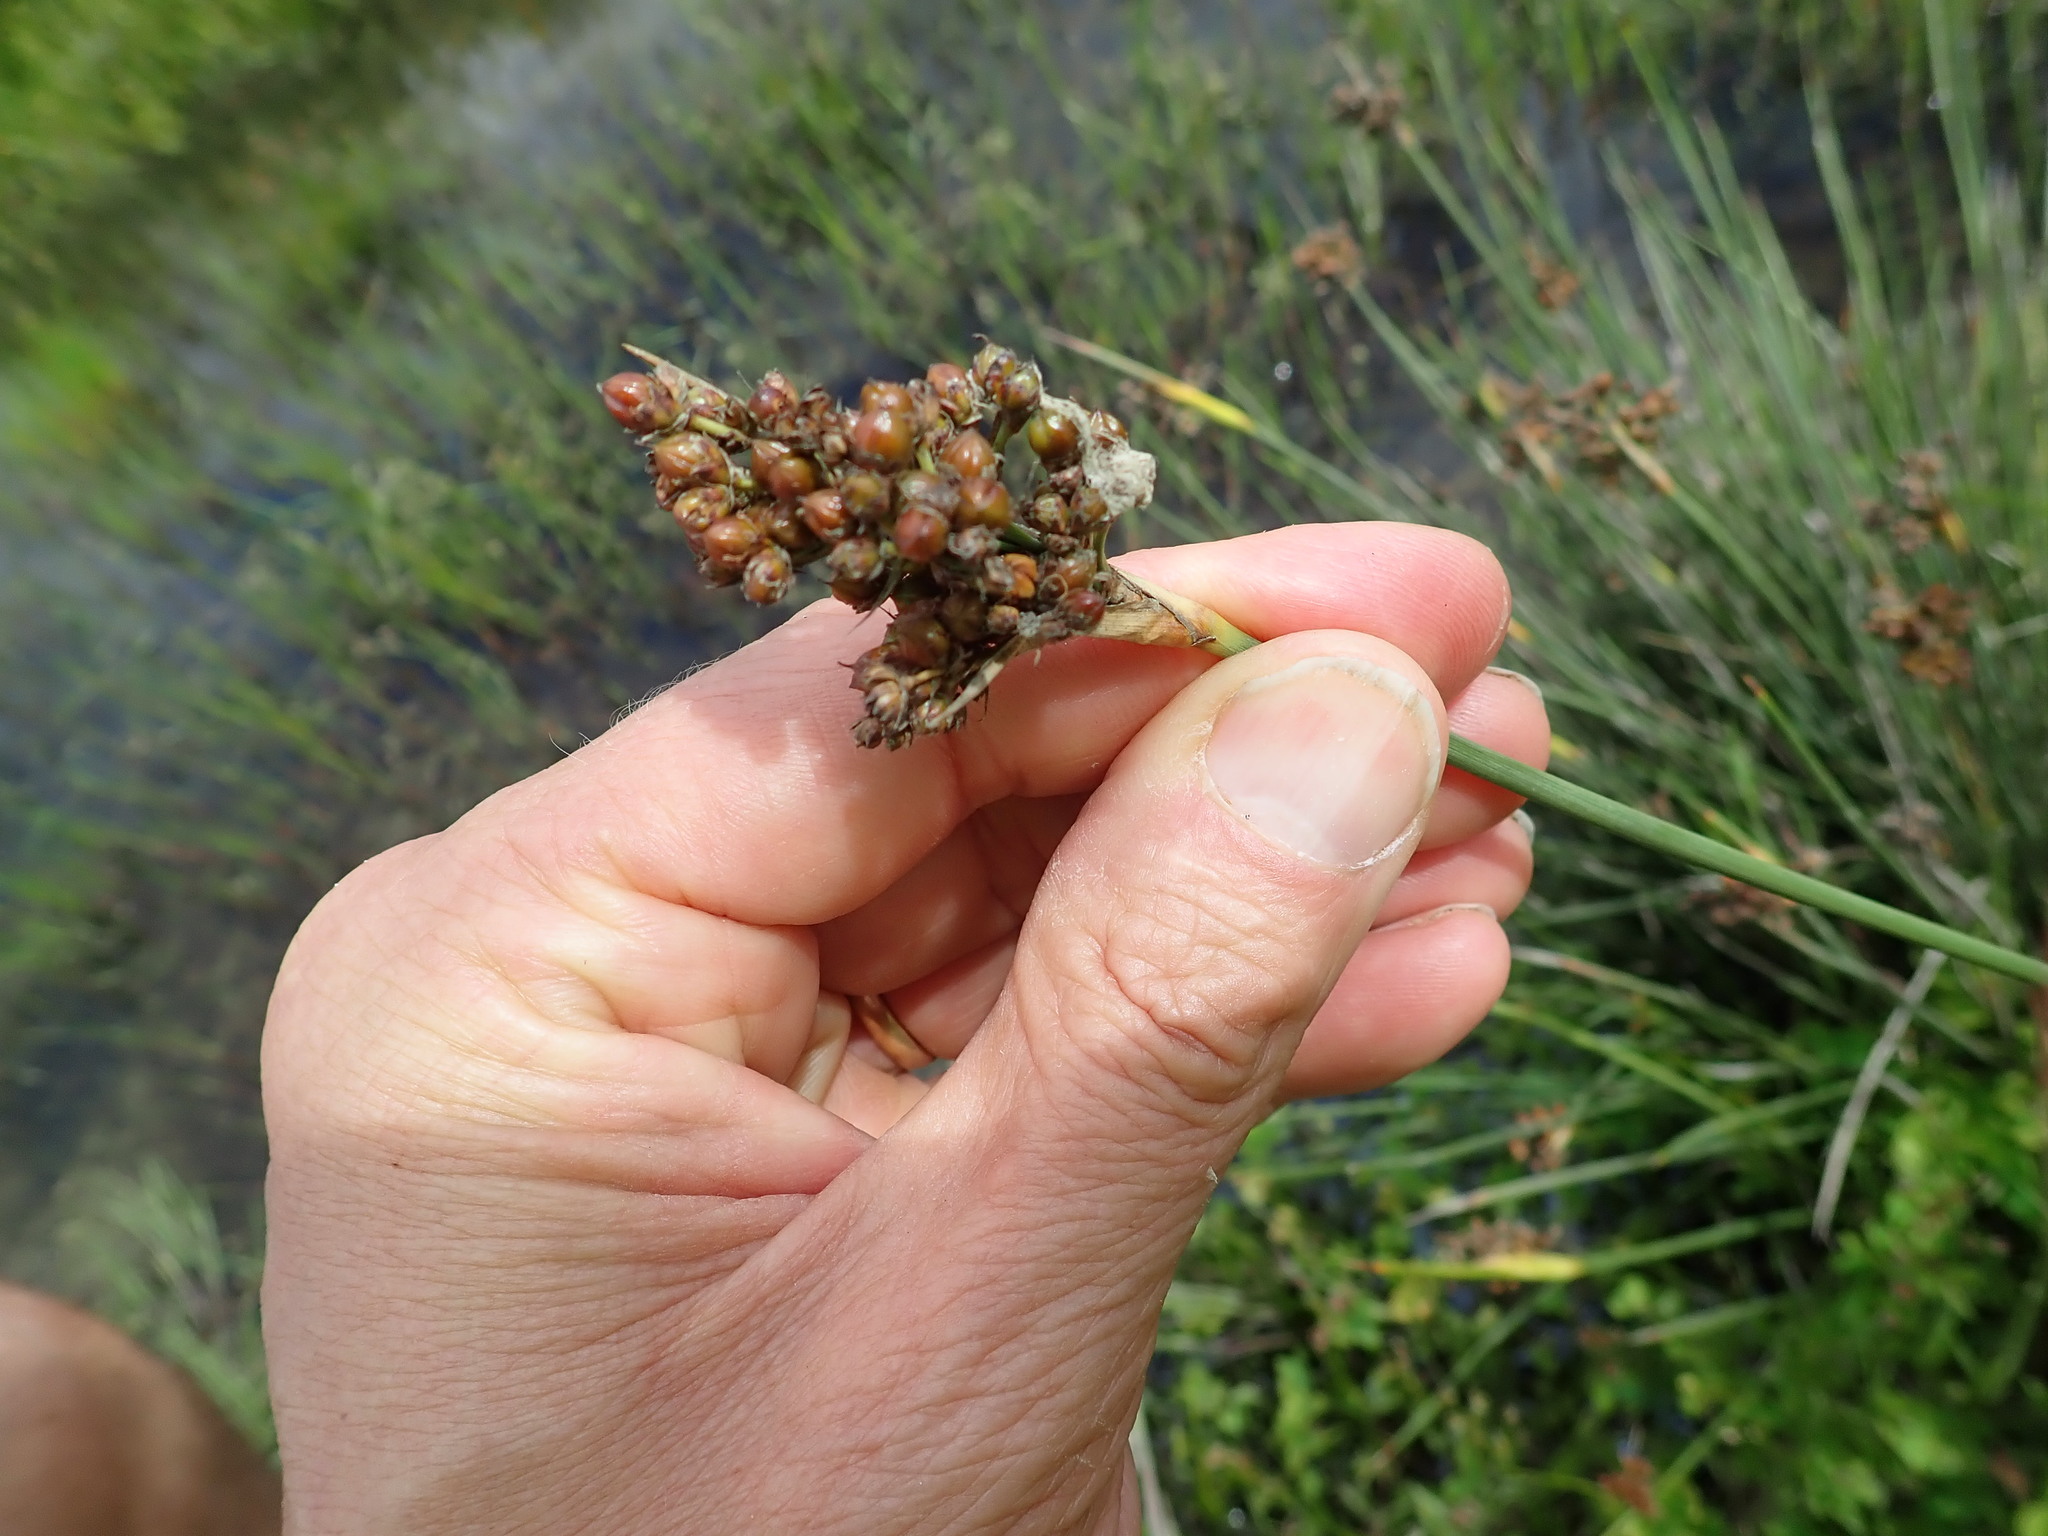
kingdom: Plantae
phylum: Tracheophyta
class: Liliopsida
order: Poales
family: Juncaceae
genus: Juncus
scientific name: Juncus acutus
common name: Sharp rush
